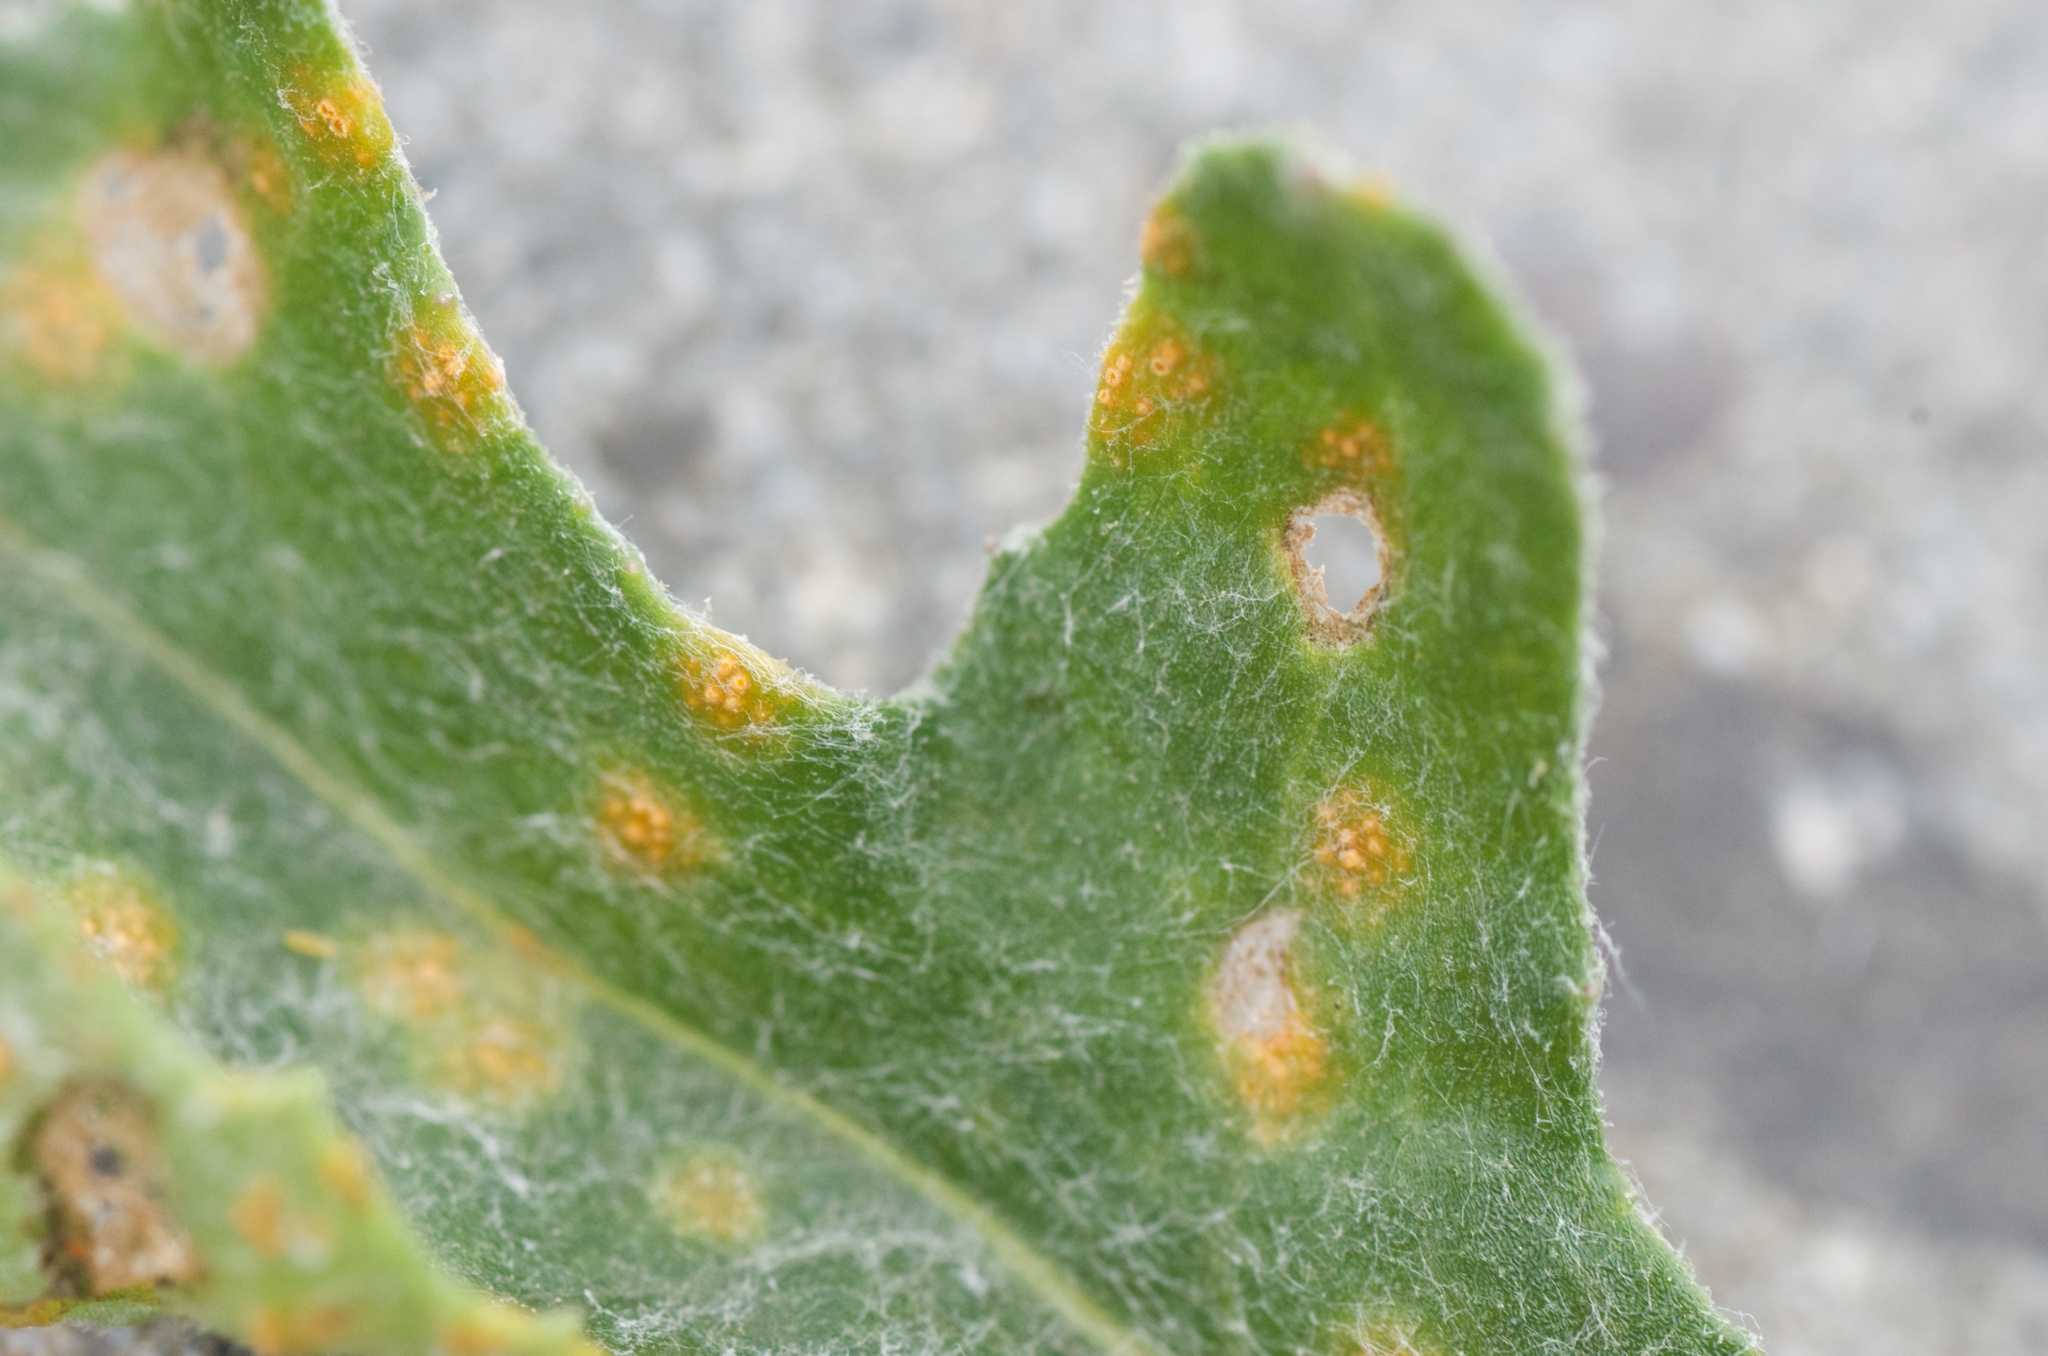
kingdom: Fungi
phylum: Basidiomycota
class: Pucciniomycetes
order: Pucciniales
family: Pucciniaceae
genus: Puccinia
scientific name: Puccinia lagenophorae
